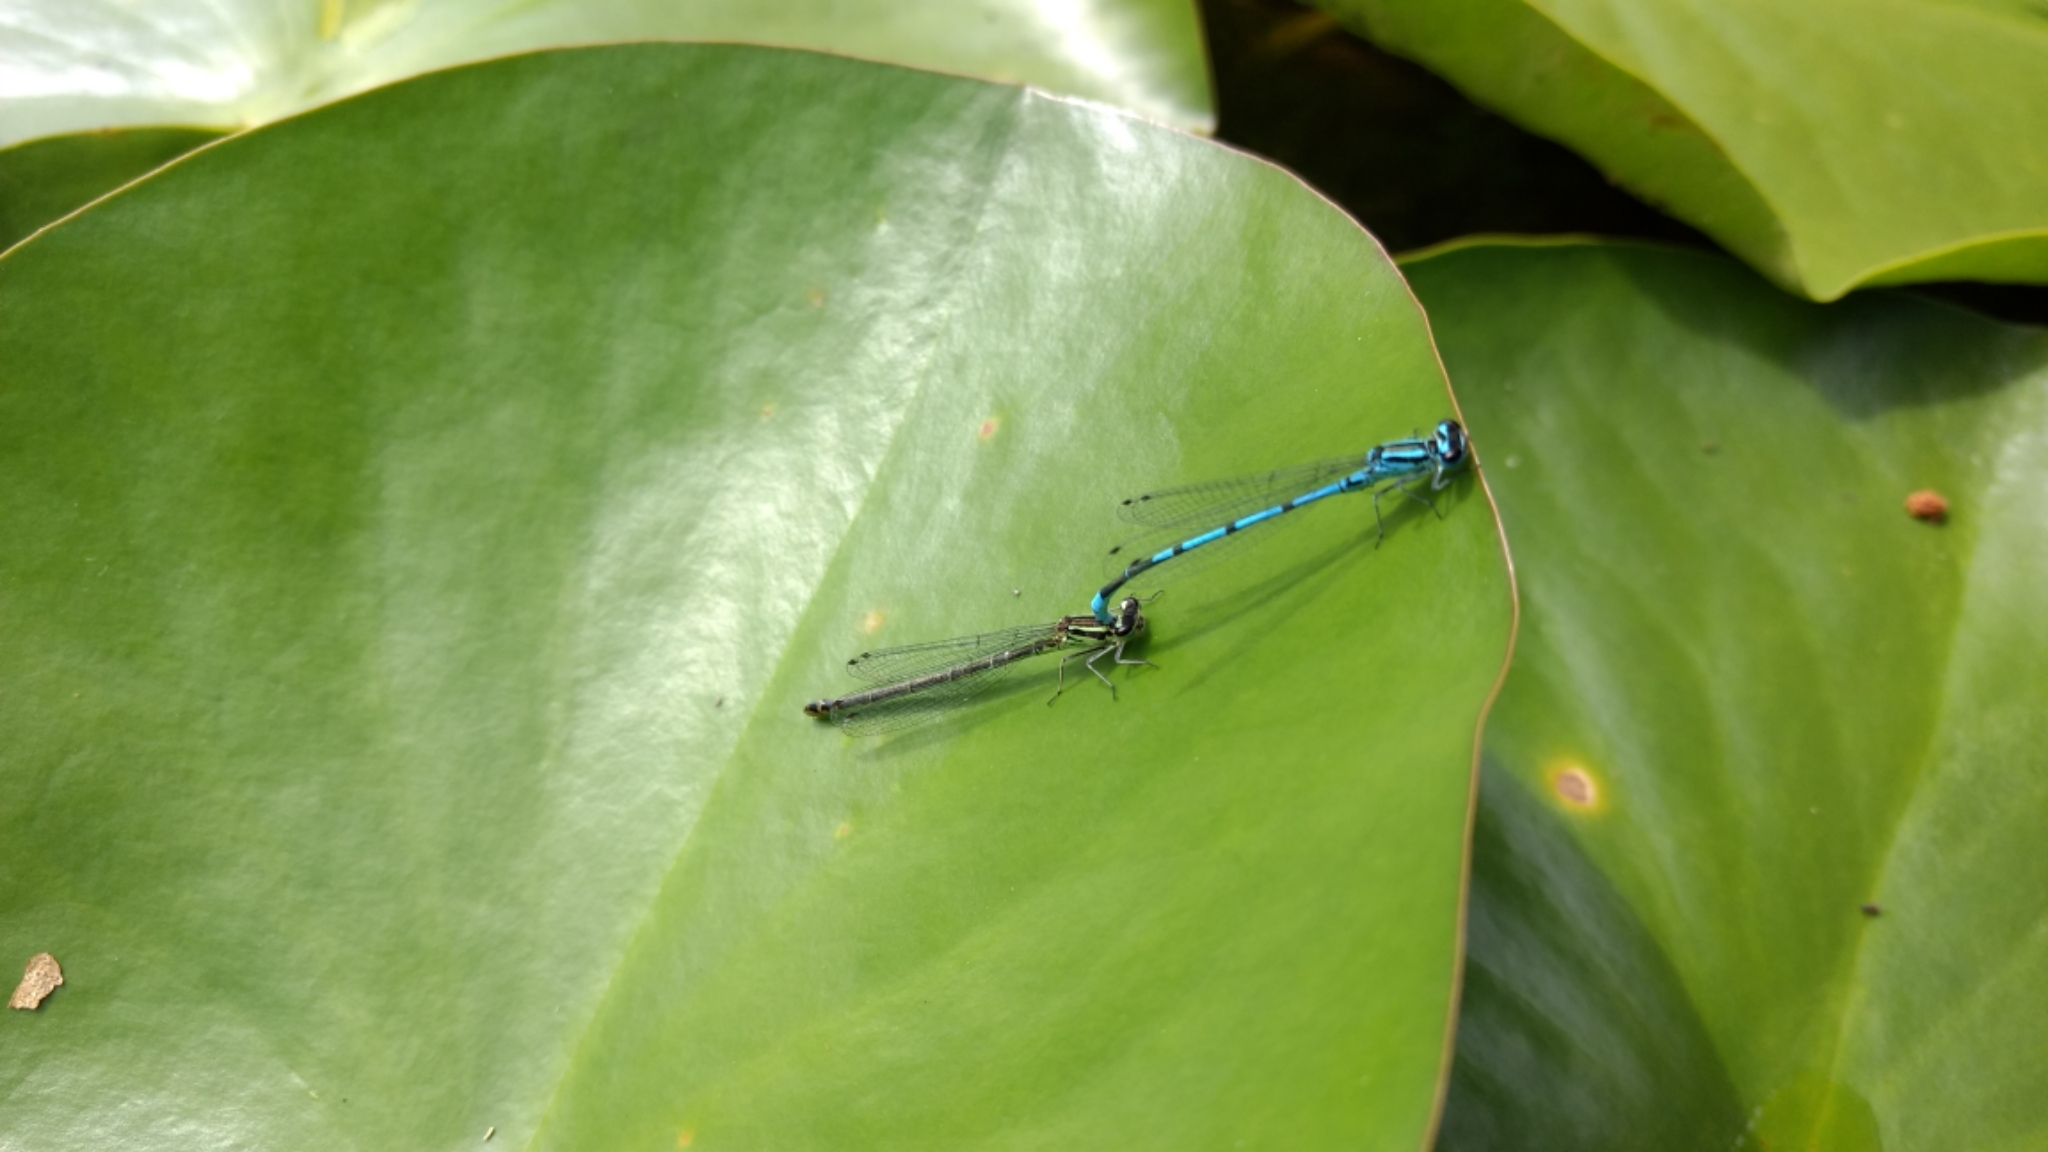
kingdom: Animalia
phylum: Arthropoda
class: Insecta
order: Odonata
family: Coenagrionidae
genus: Coenagrion
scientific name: Coenagrion puella
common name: Azure damselfly
